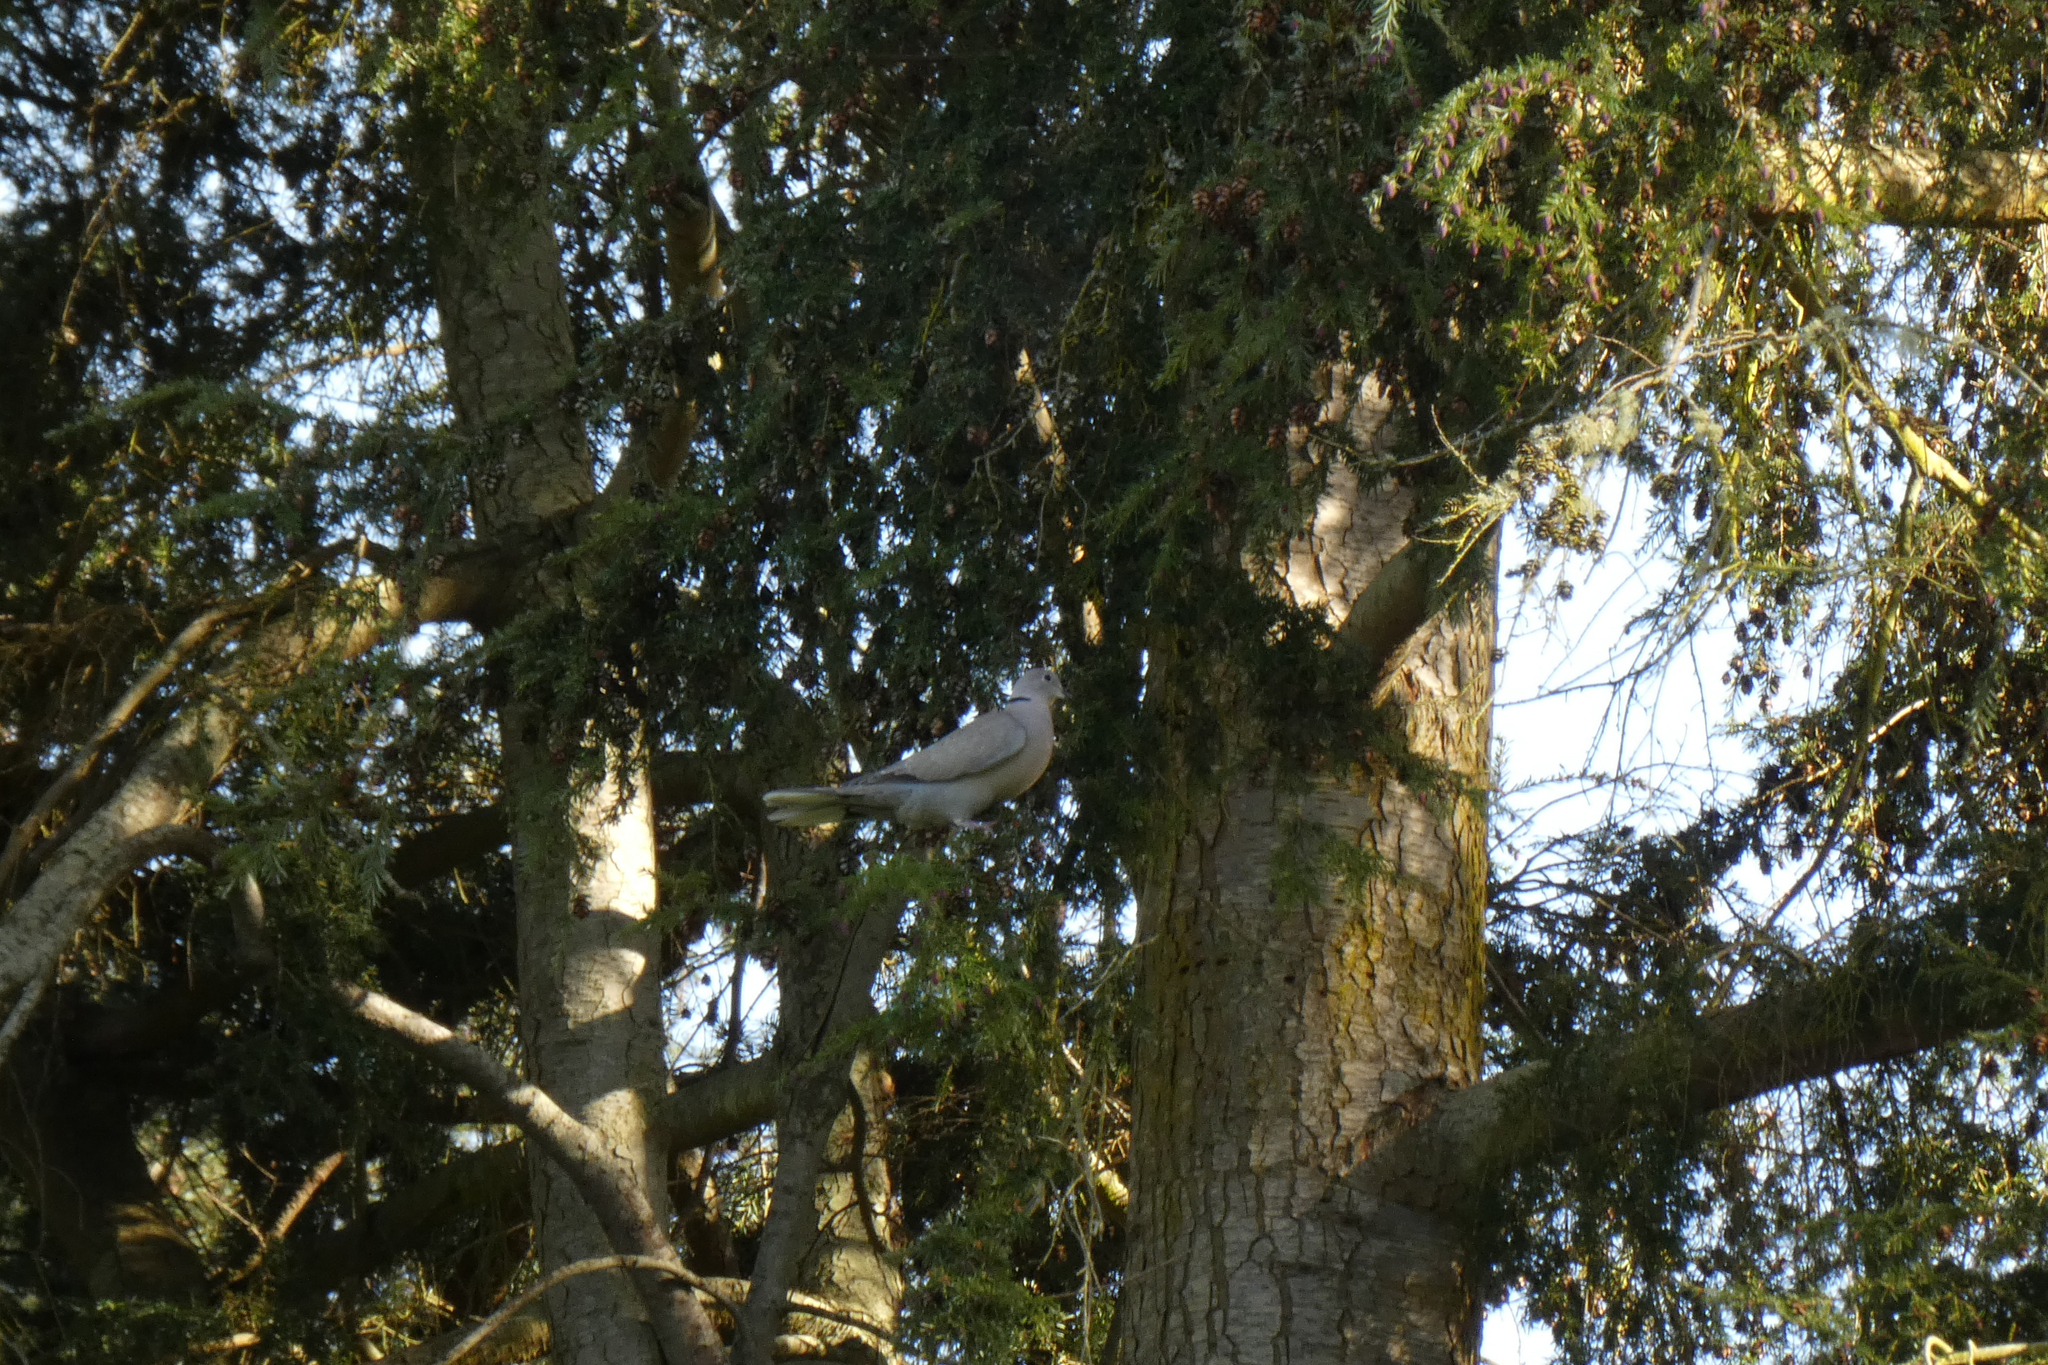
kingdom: Animalia
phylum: Chordata
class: Aves
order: Columbiformes
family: Columbidae
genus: Streptopelia
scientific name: Streptopelia decaocto
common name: Eurasian collared dove
